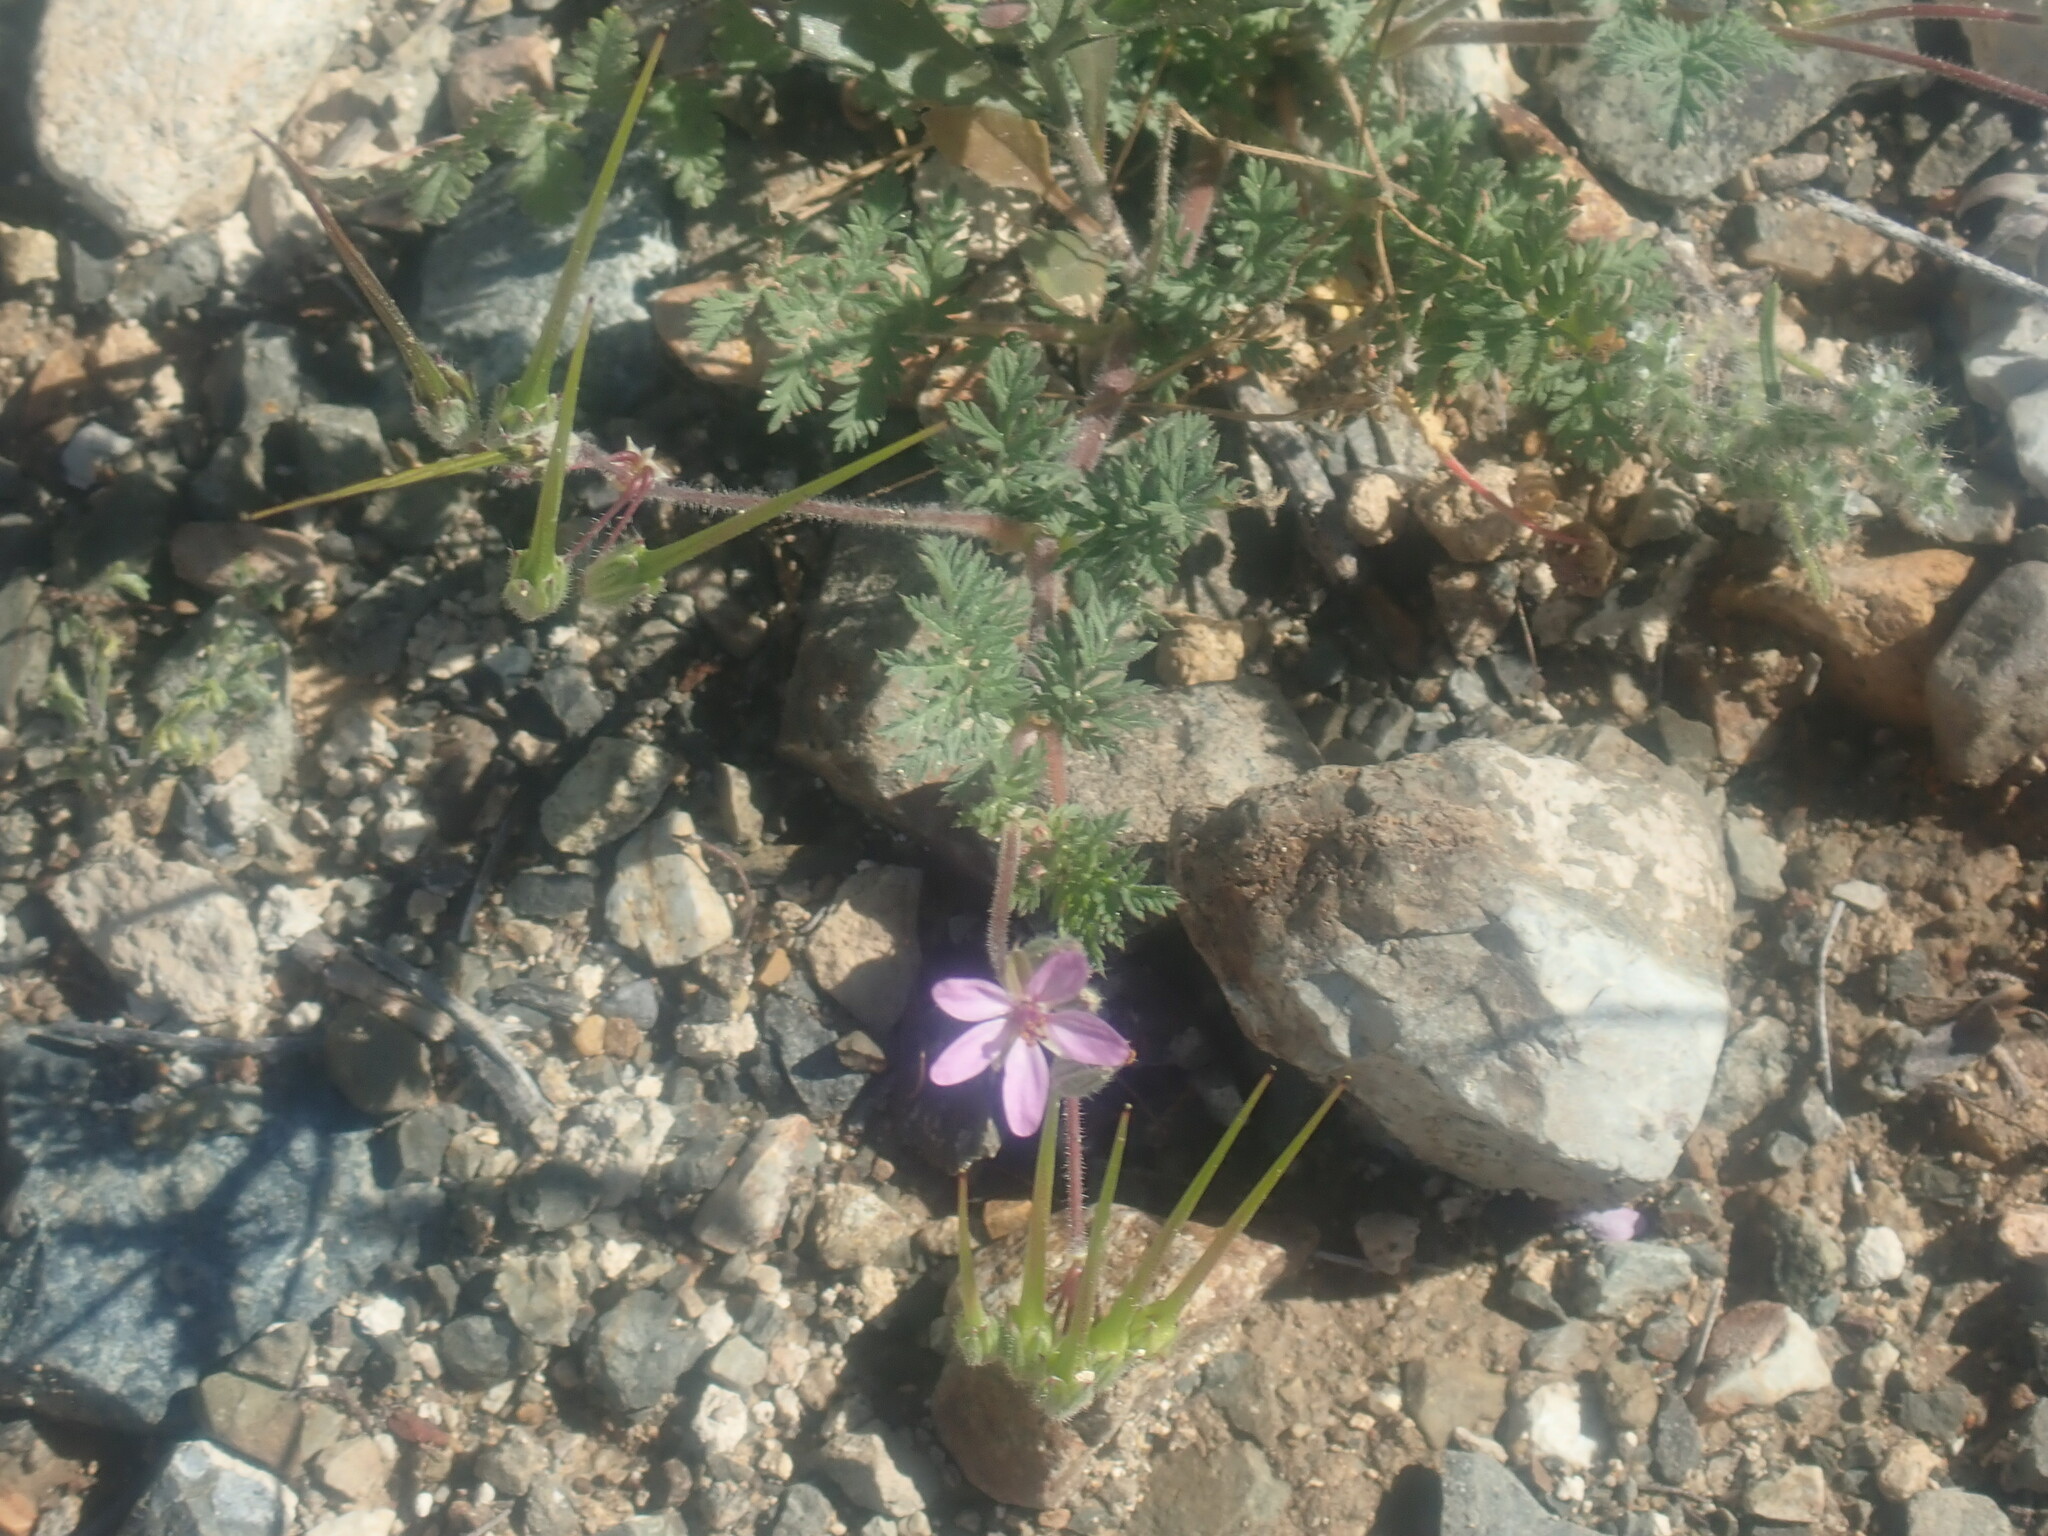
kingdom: Plantae
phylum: Tracheophyta
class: Magnoliopsida
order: Geraniales
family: Geraniaceae
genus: Erodium
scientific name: Erodium cicutarium
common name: Common stork's-bill
